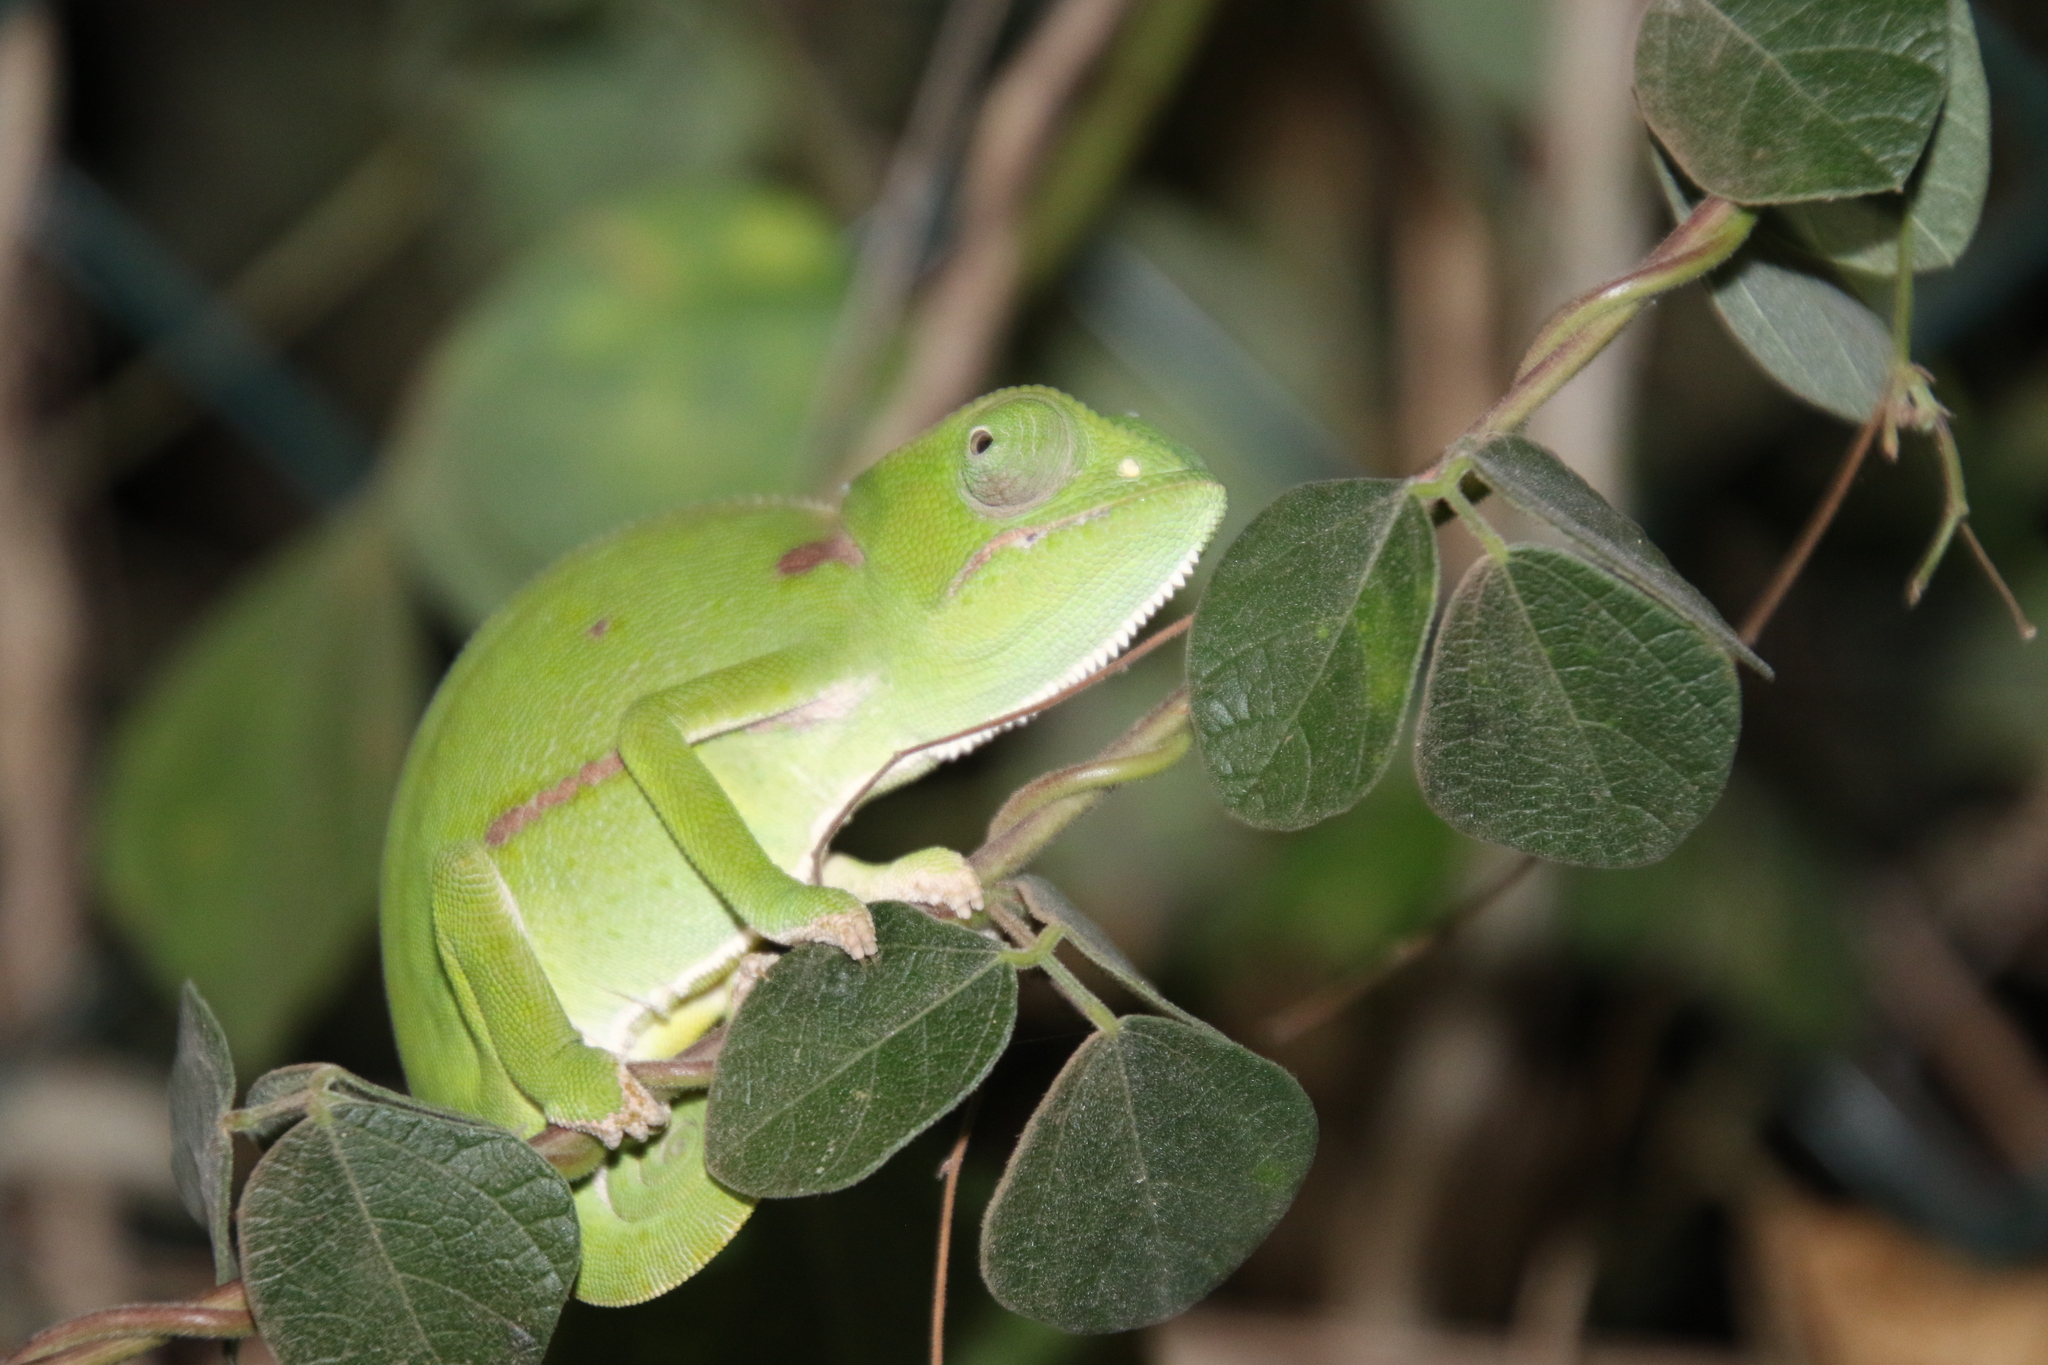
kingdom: Animalia
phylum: Chordata
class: Squamata
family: Chamaeleonidae
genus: Chamaeleo
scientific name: Chamaeleo dilepis
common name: Flapneck chameleon
